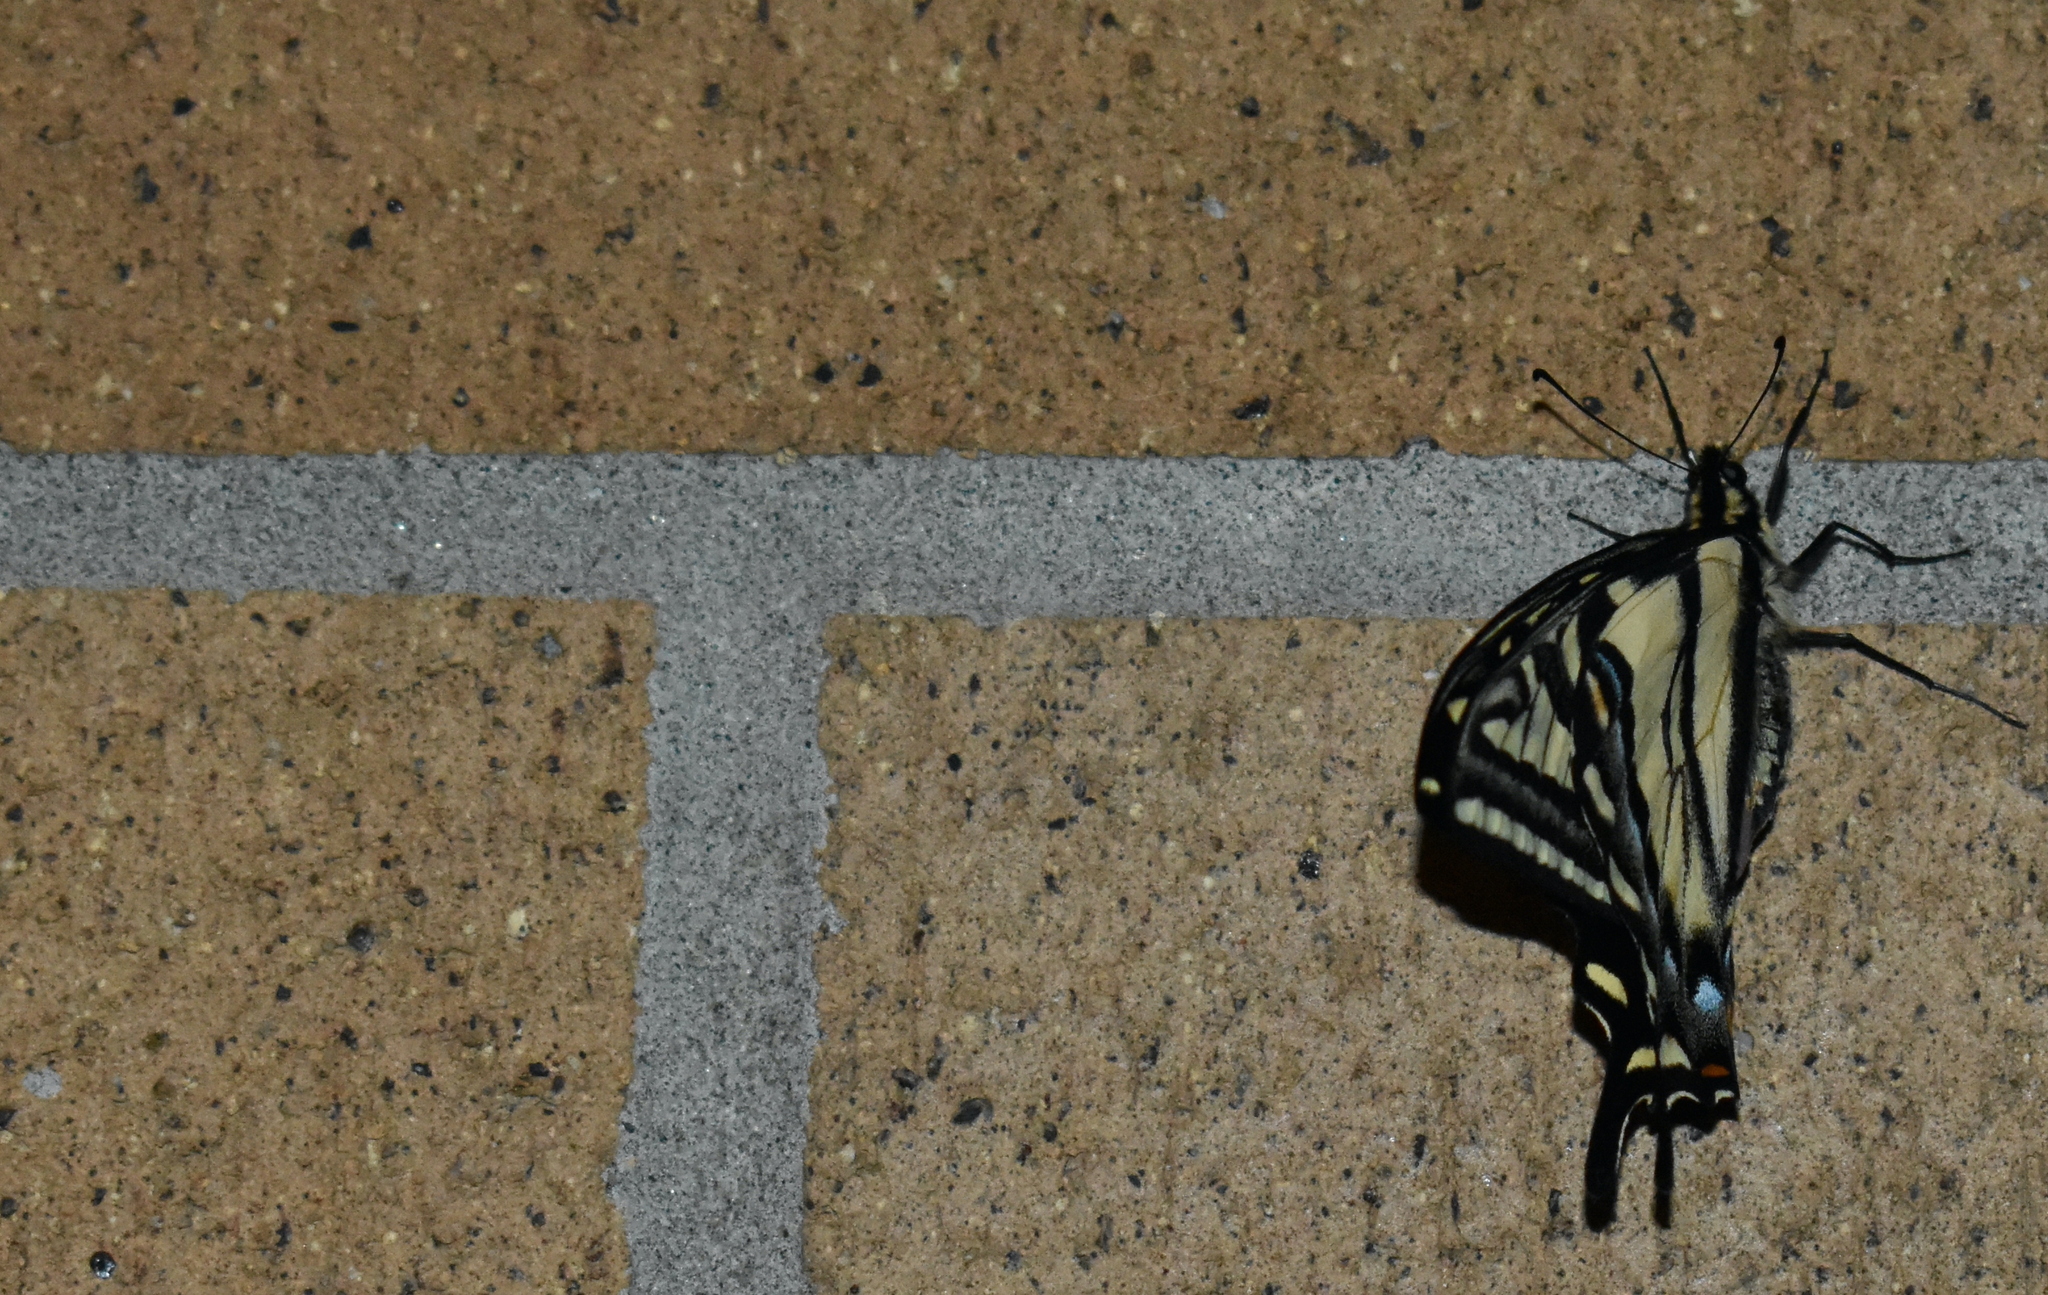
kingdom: Animalia
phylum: Arthropoda
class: Insecta
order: Lepidoptera
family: Papilionidae
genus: Papilio
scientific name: Papilio rutulus
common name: Western tiger swallowtail
